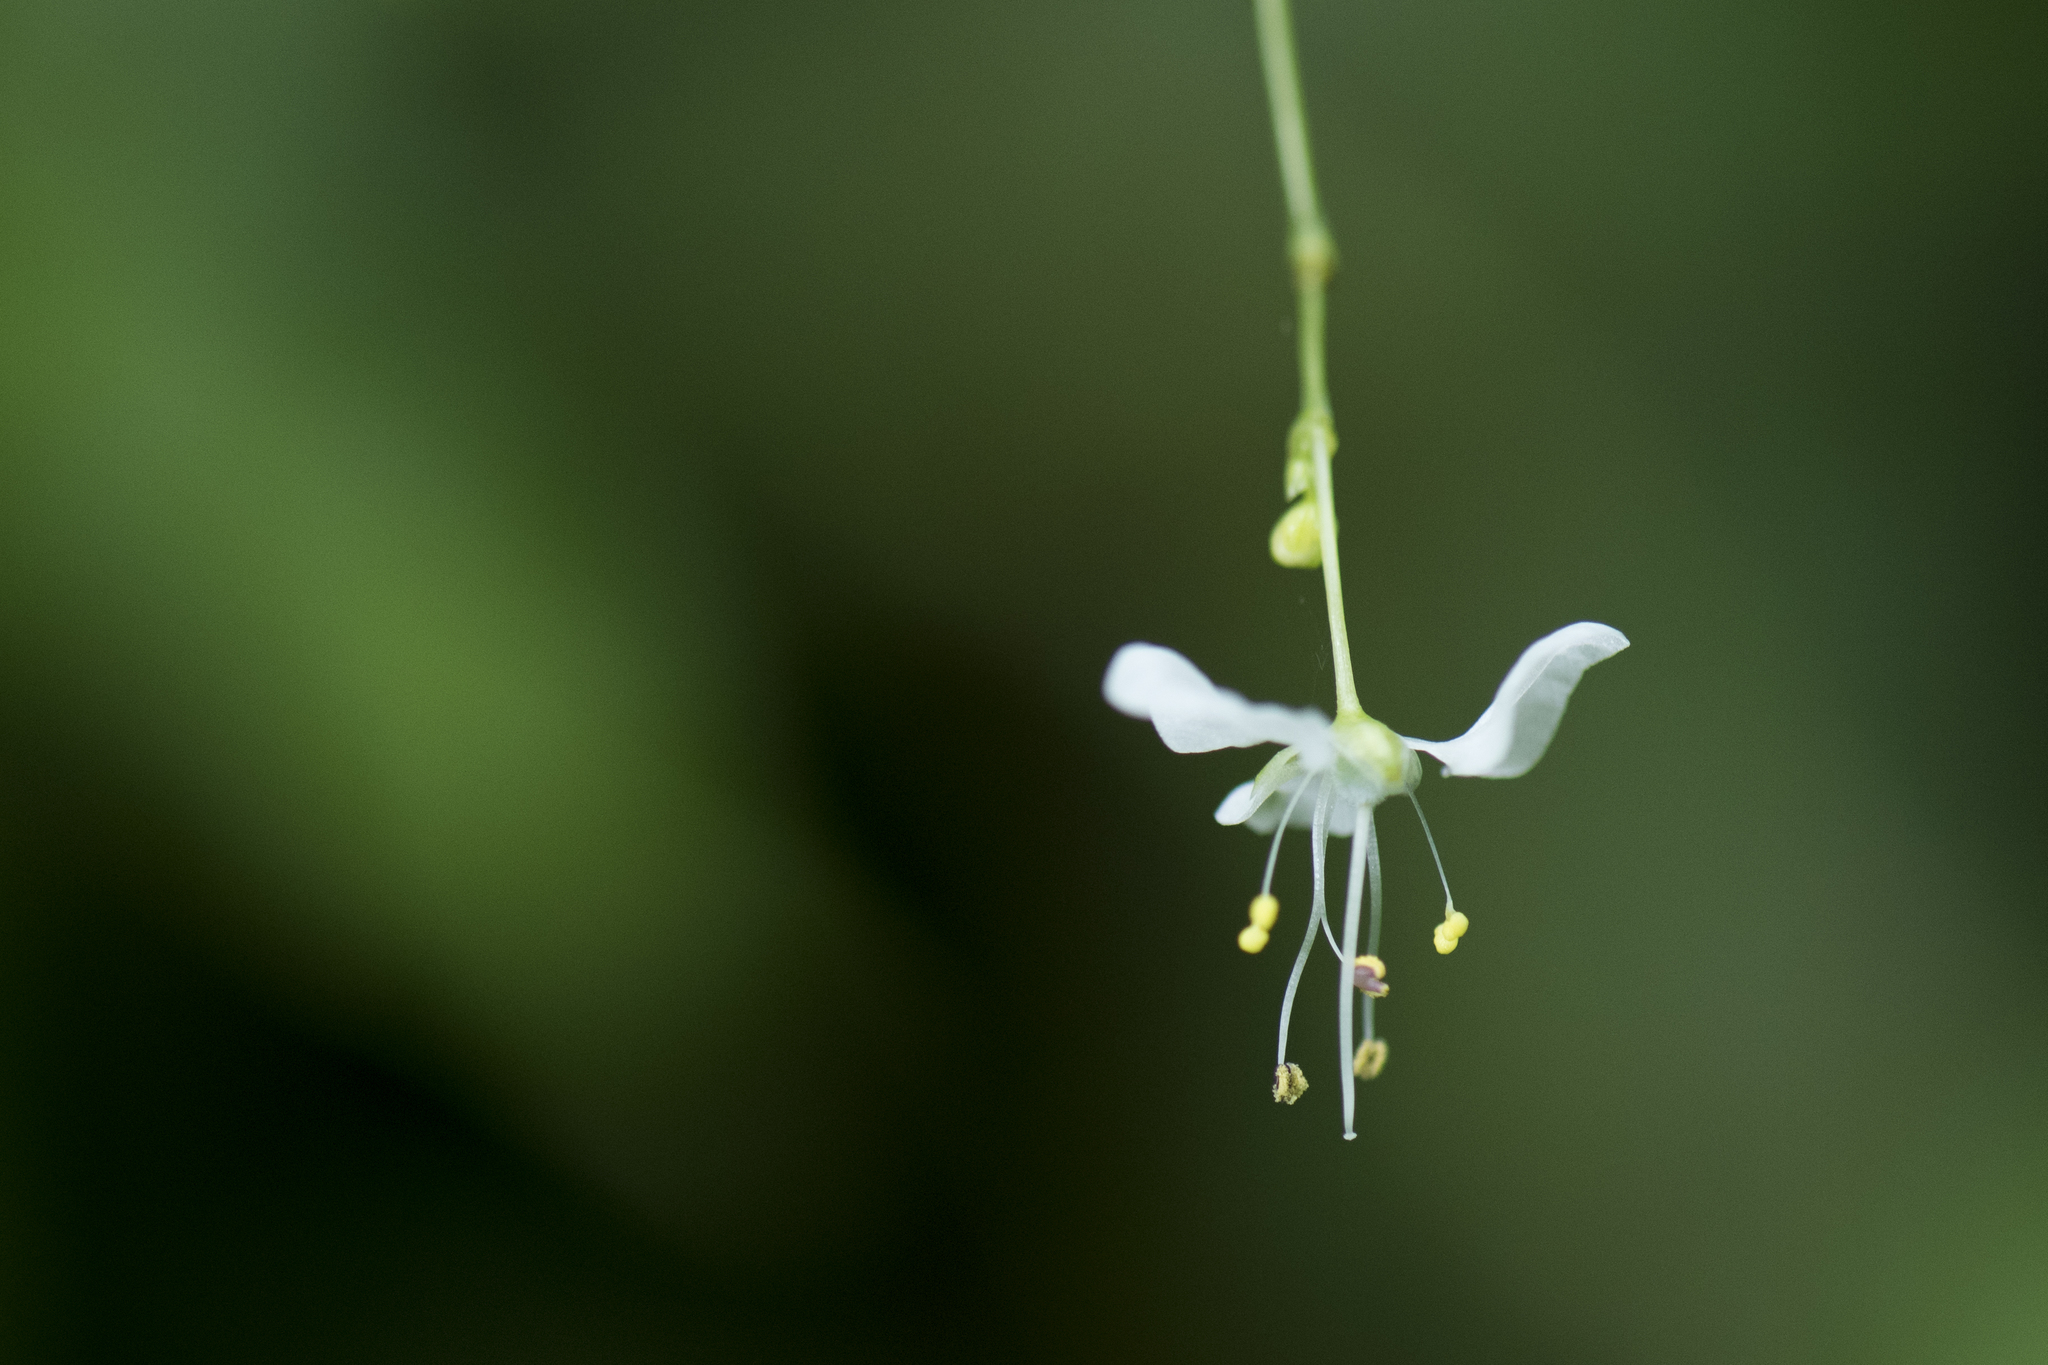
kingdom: Plantae
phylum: Tracheophyta
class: Liliopsida
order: Commelinales
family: Commelinaceae
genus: Rhopalephora
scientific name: Rhopalephora scaberrima
